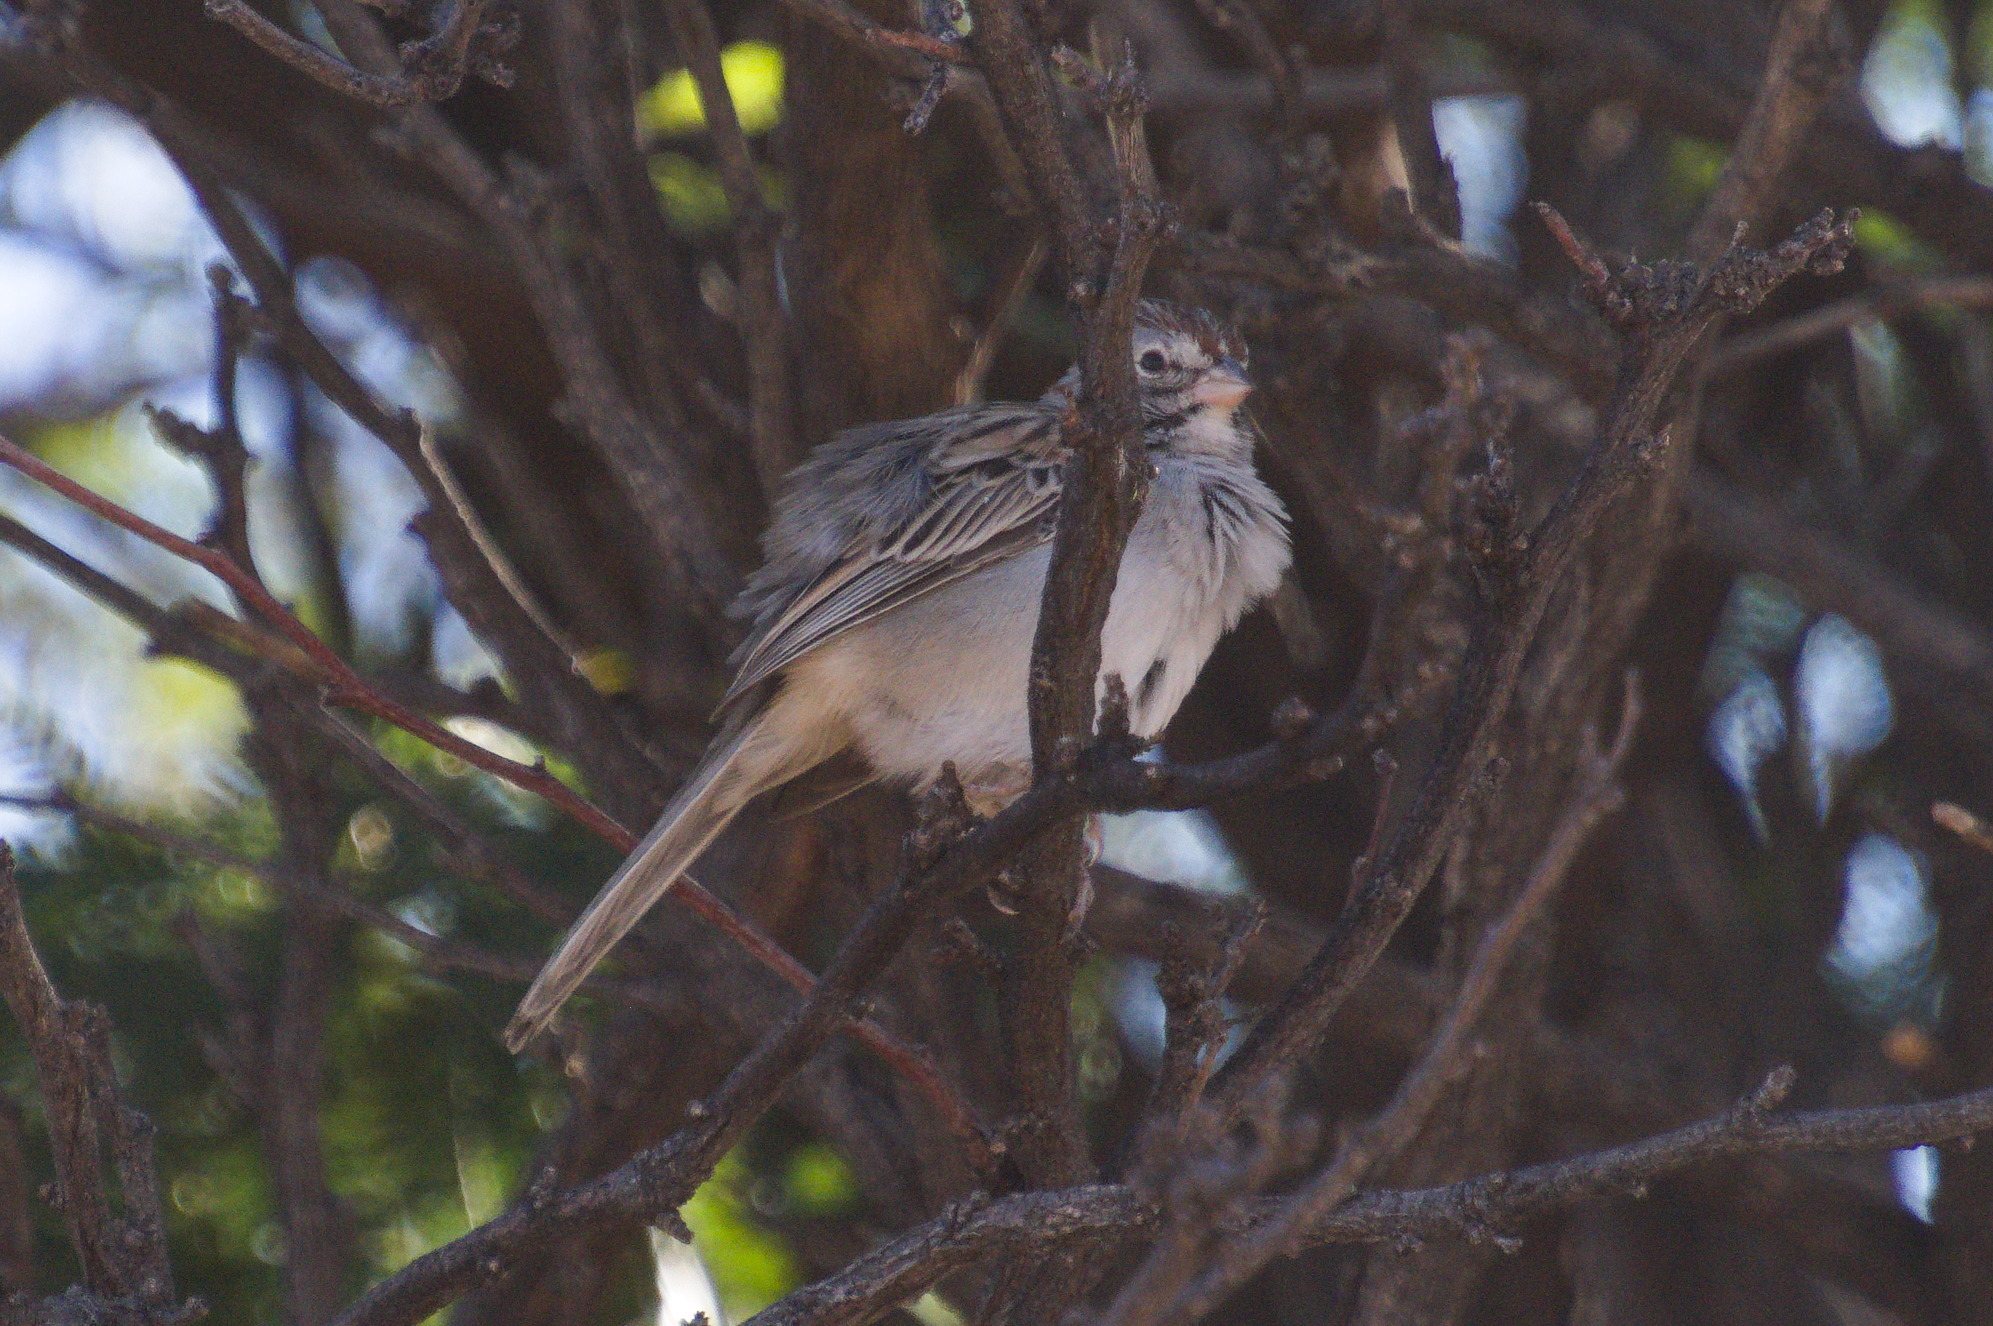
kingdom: Animalia
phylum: Chordata
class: Aves
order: Passeriformes
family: Passerellidae
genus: Peucaea
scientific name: Peucaea carpalis
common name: Rufous-winged sparrow
